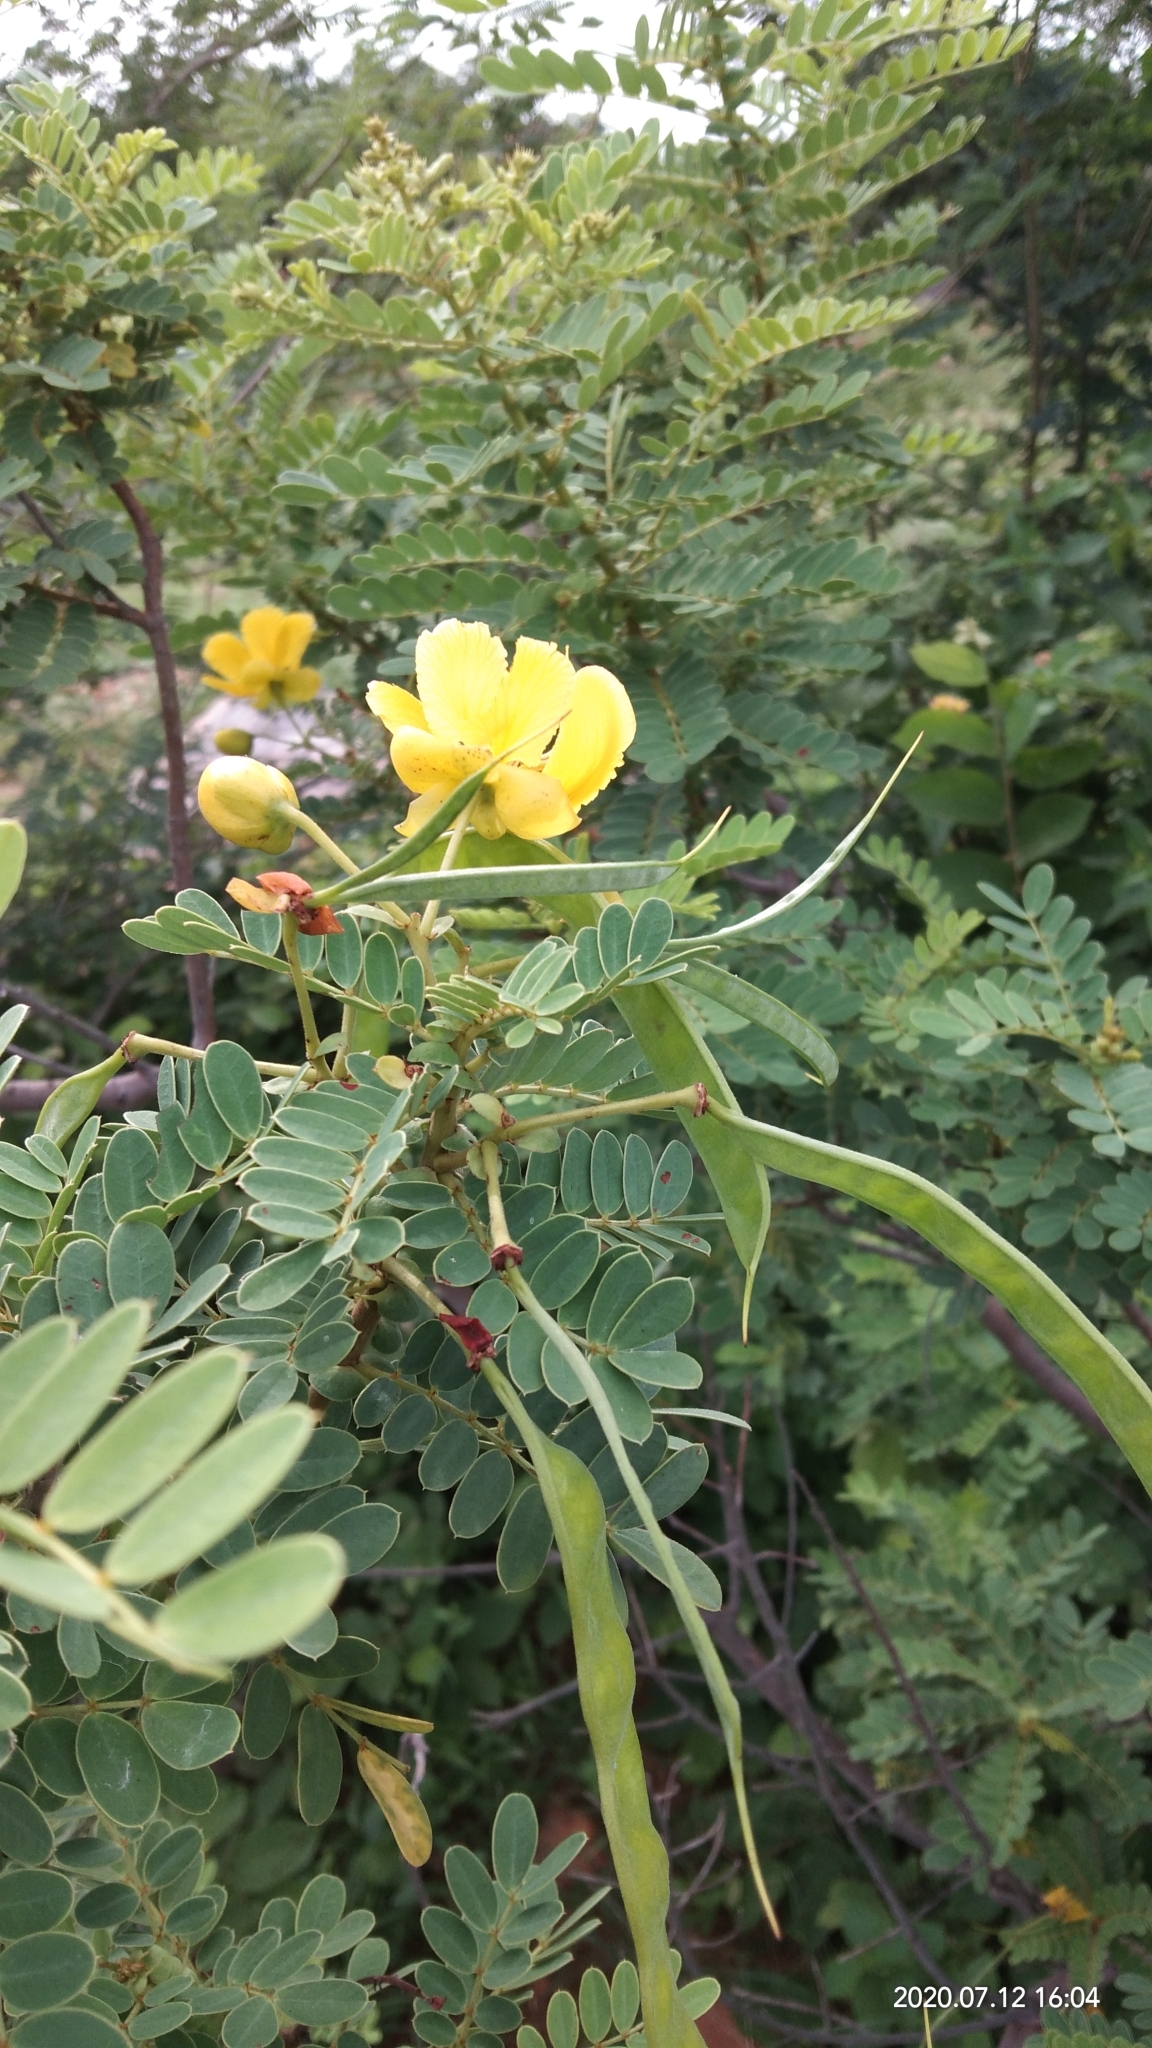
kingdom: Plantae
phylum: Tracheophyta
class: Magnoliopsida
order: Fabales
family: Fabaceae
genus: Senna
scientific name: Senna auriculata
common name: Tanner's cassia
